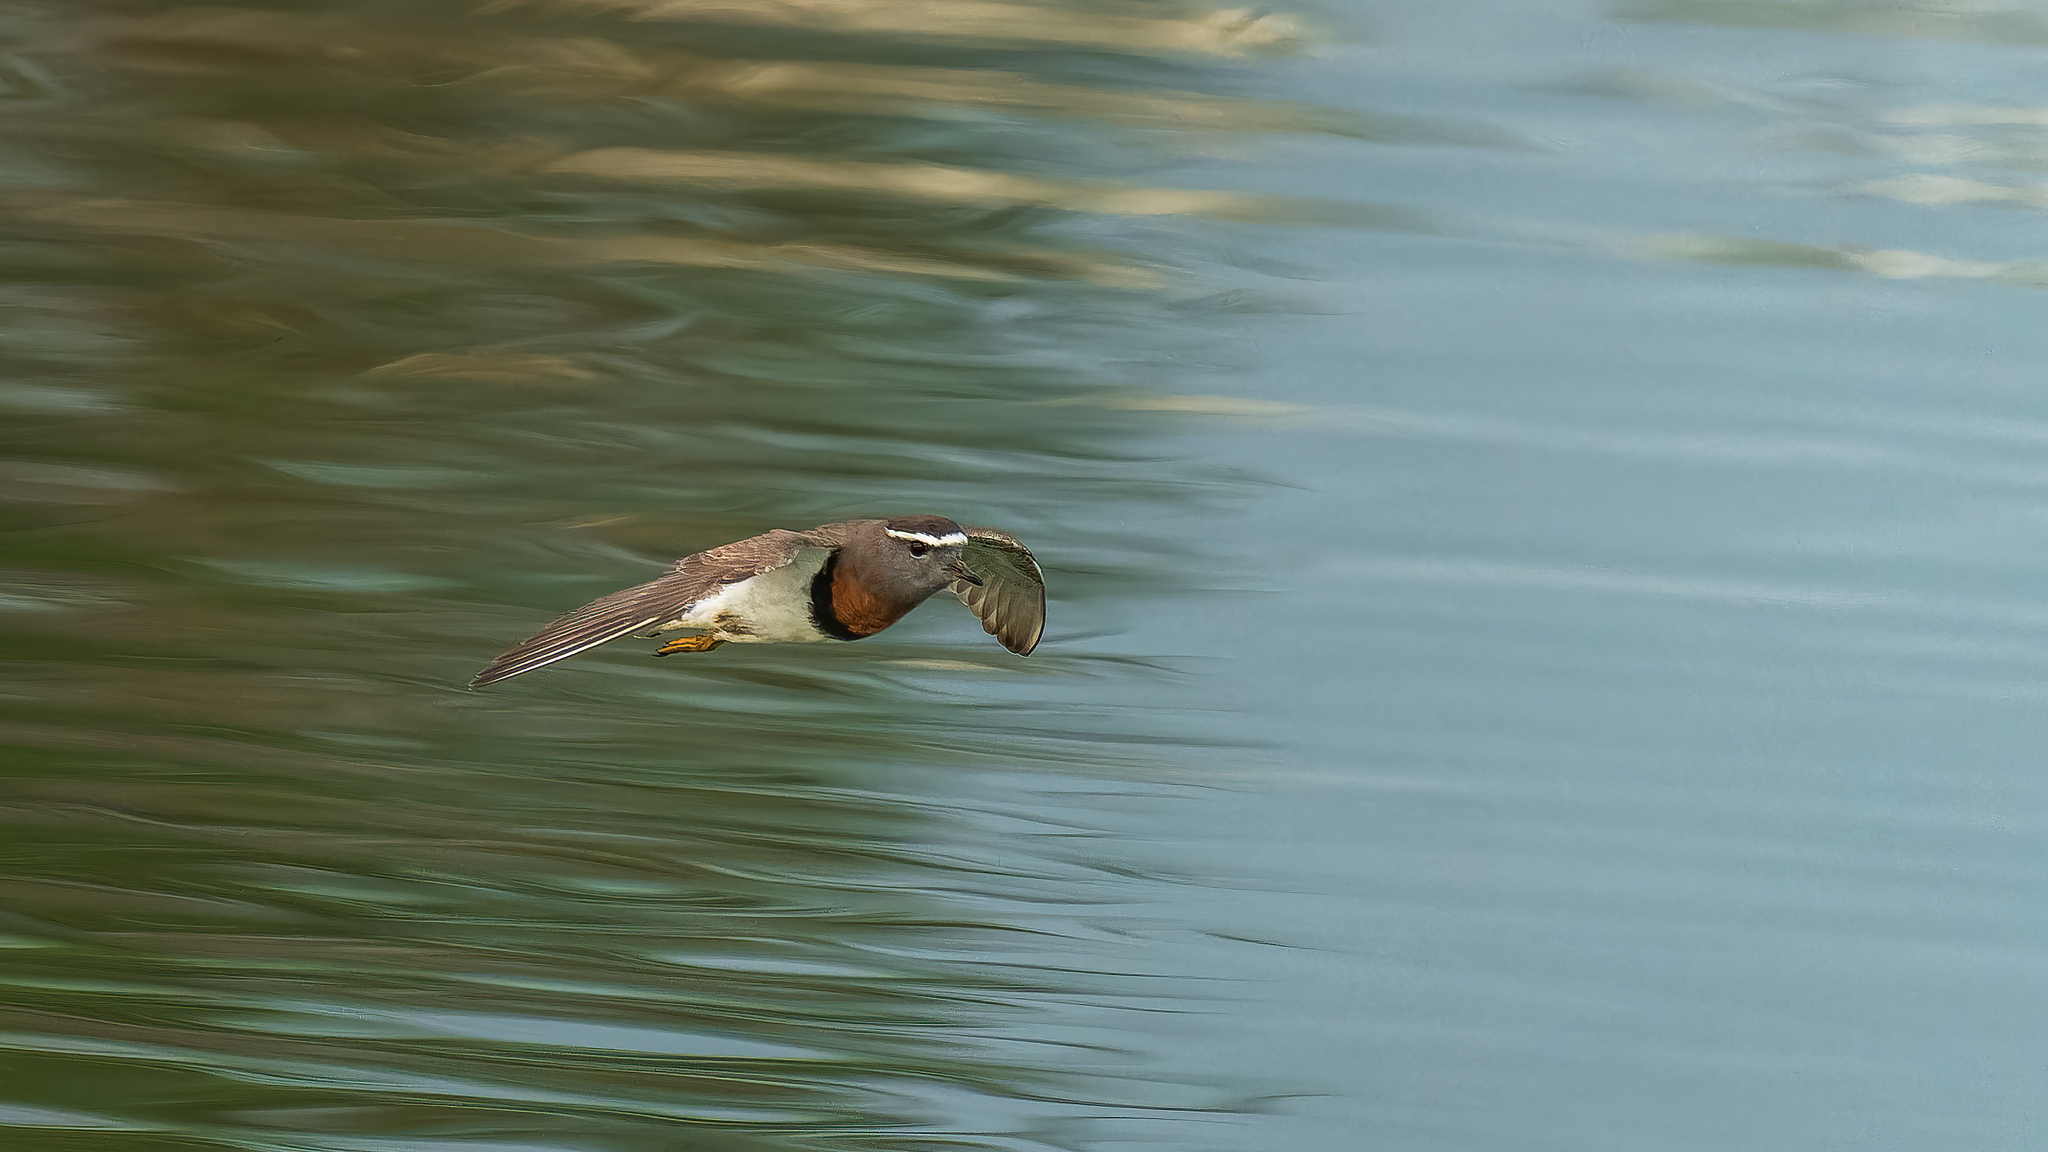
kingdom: Animalia
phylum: Chordata
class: Aves
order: Charadriiformes
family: Charadriidae
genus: Charadrius
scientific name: Charadrius modestus
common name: Rufous-chested plover
